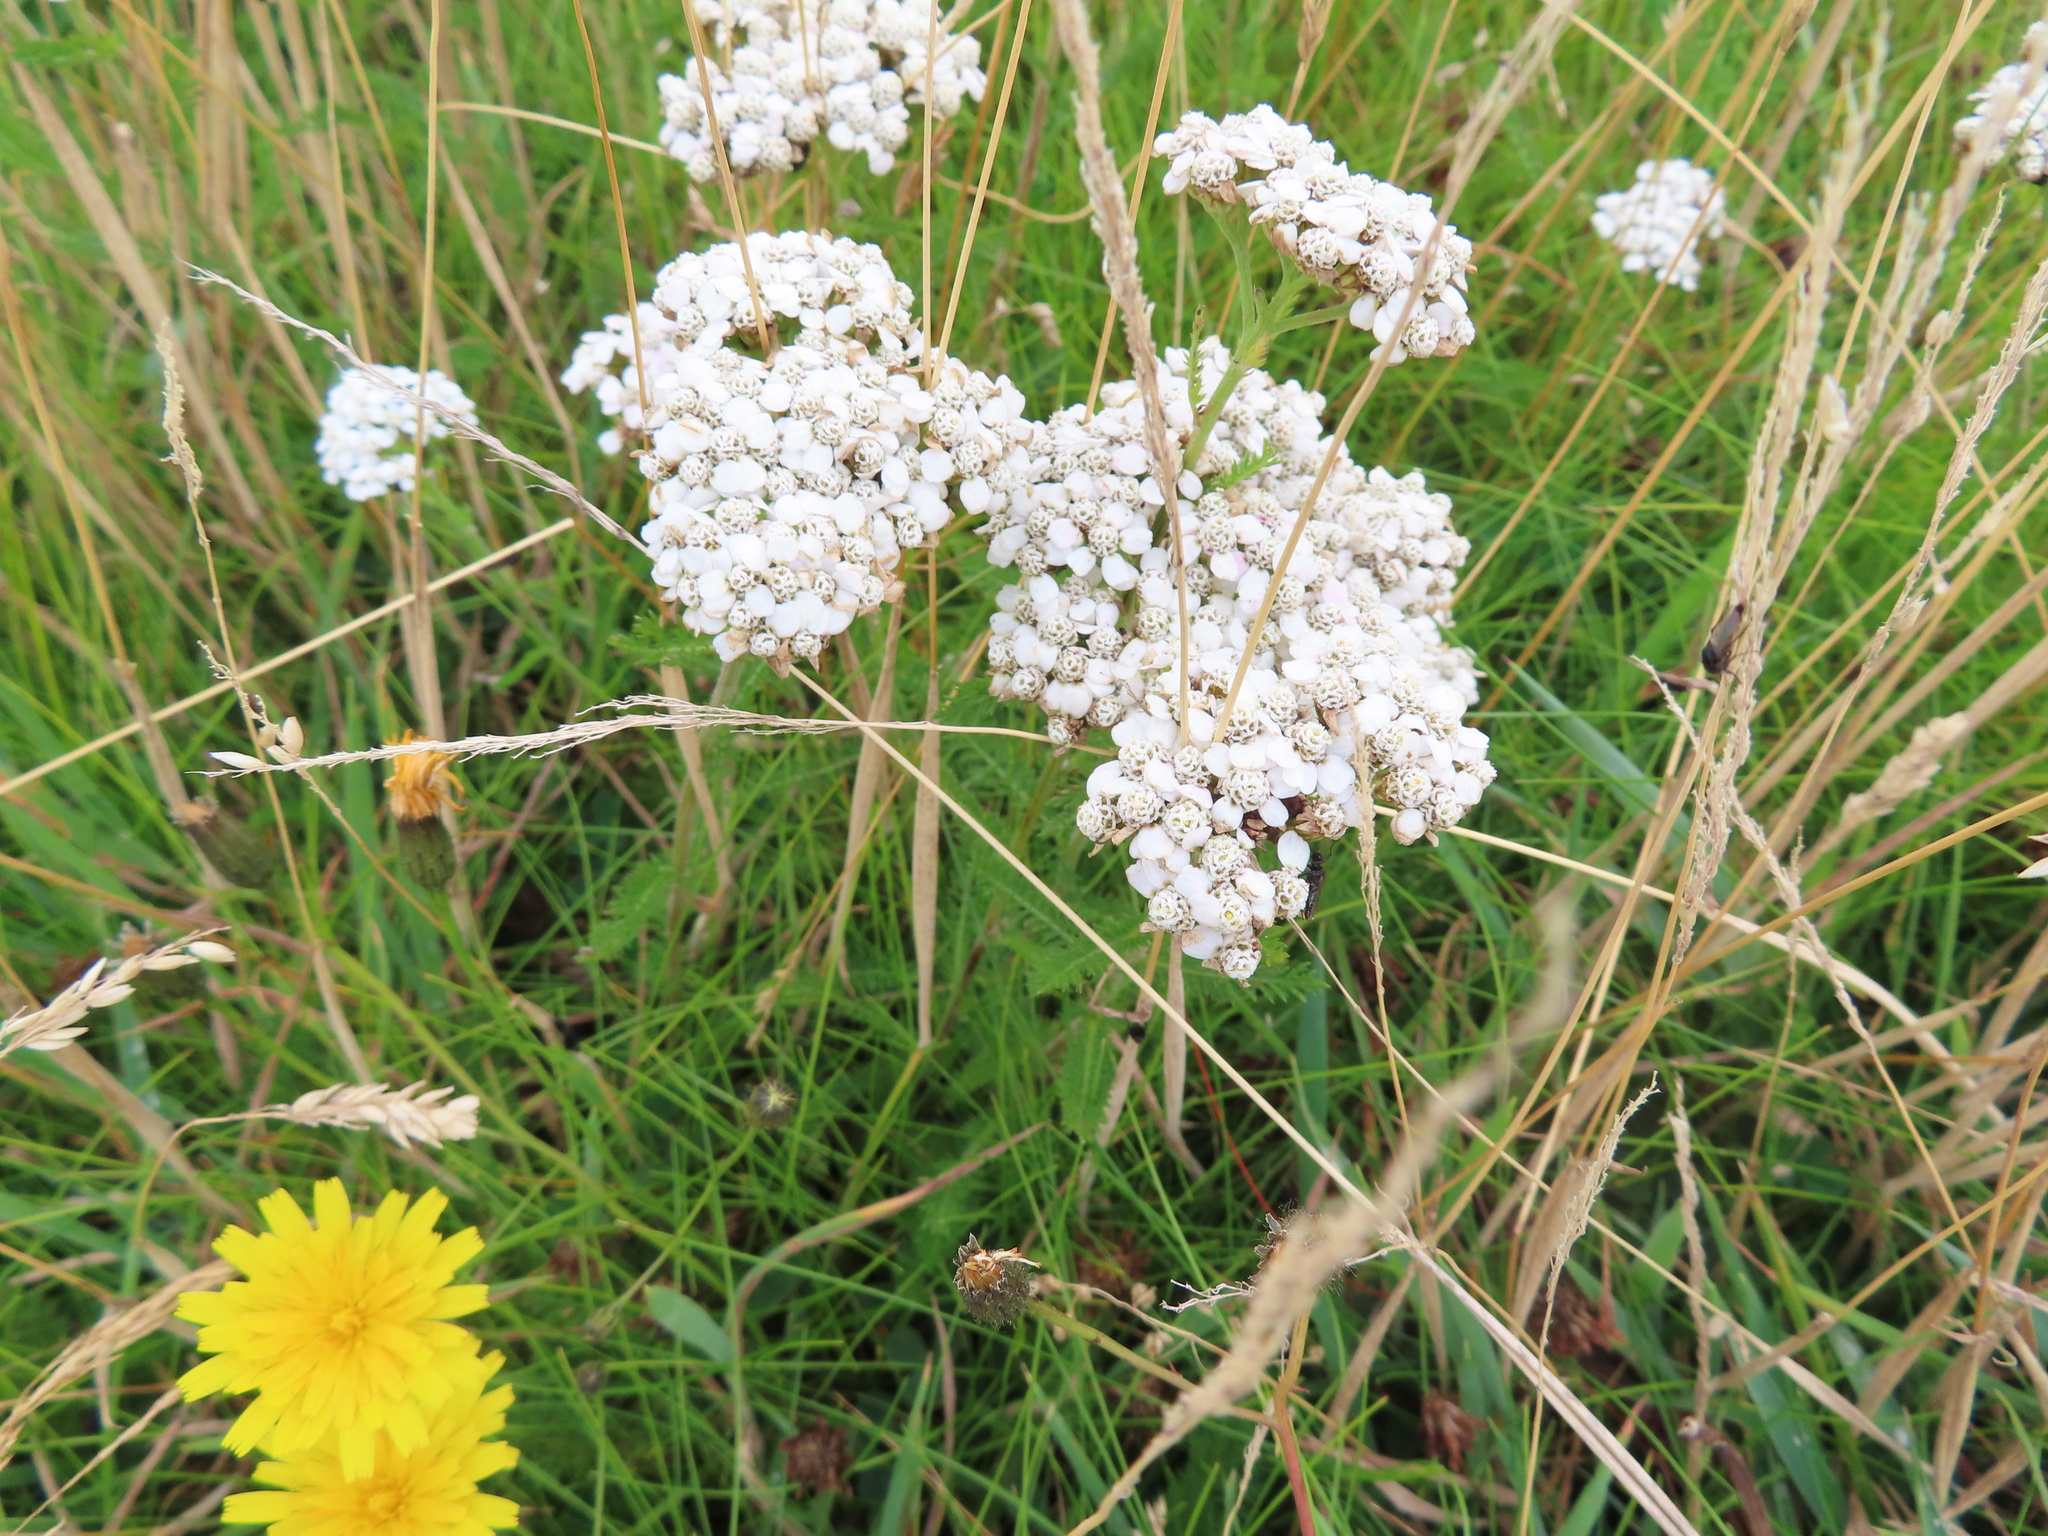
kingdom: Plantae
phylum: Tracheophyta
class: Magnoliopsida
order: Asterales
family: Asteraceae
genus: Achillea
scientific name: Achillea millefolium
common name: Yarrow
